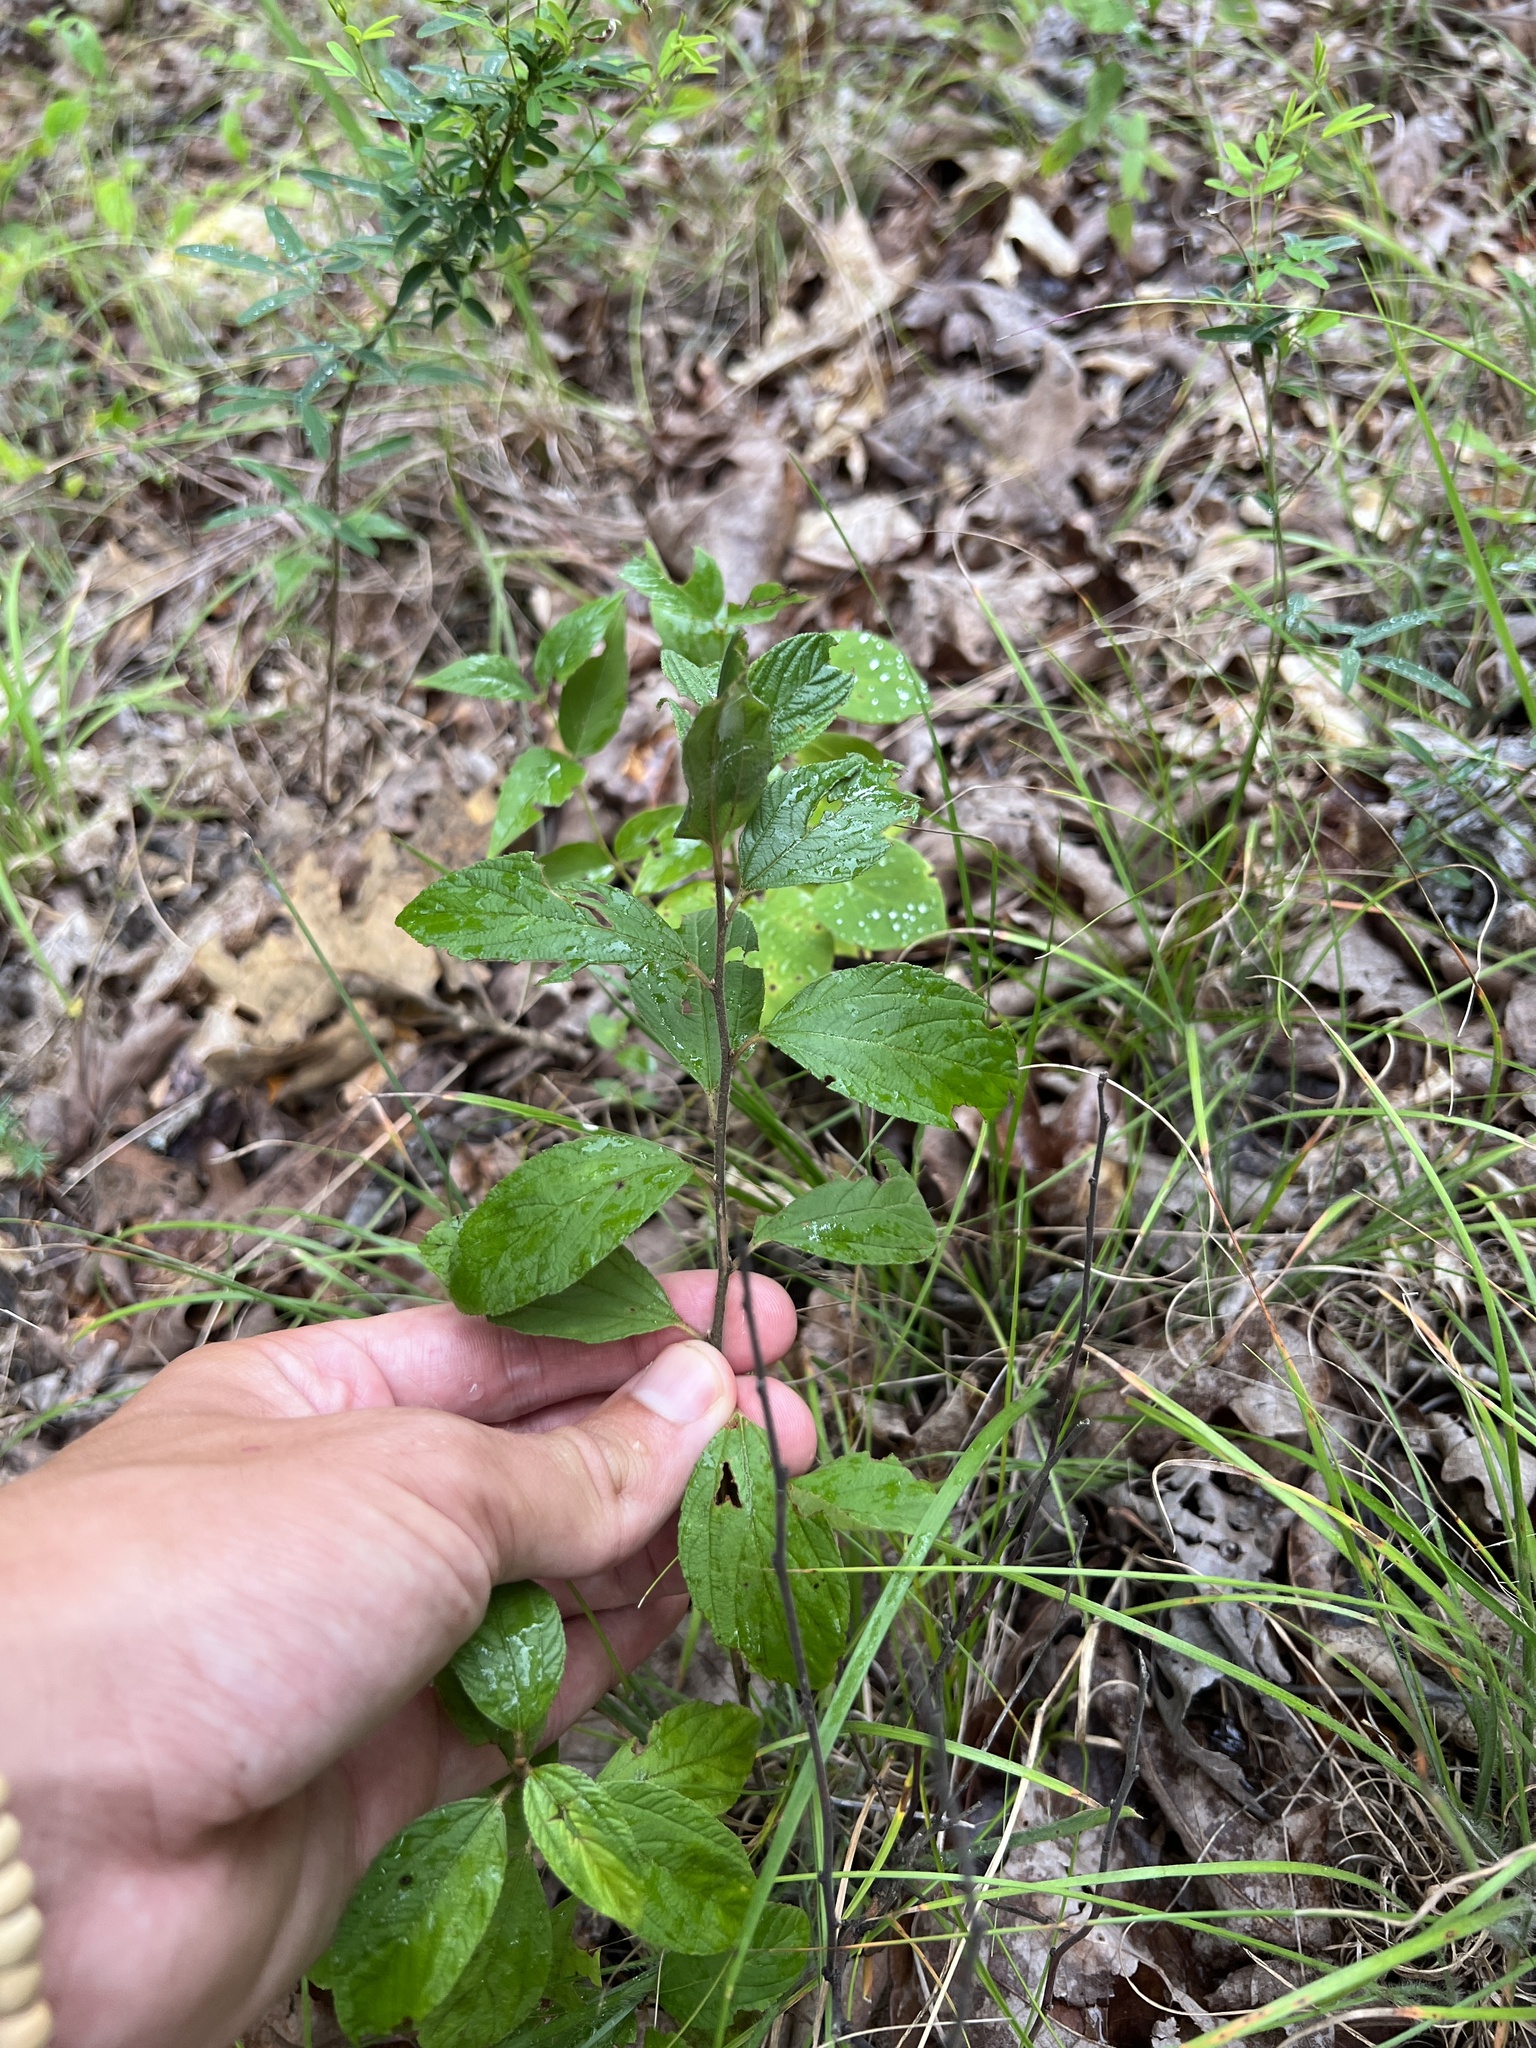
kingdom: Plantae
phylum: Tracheophyta
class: Magnoliopsida
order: Rosales
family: Rhamnaceae
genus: Ceanothus
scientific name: Ceanothus americanus
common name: Redroot
